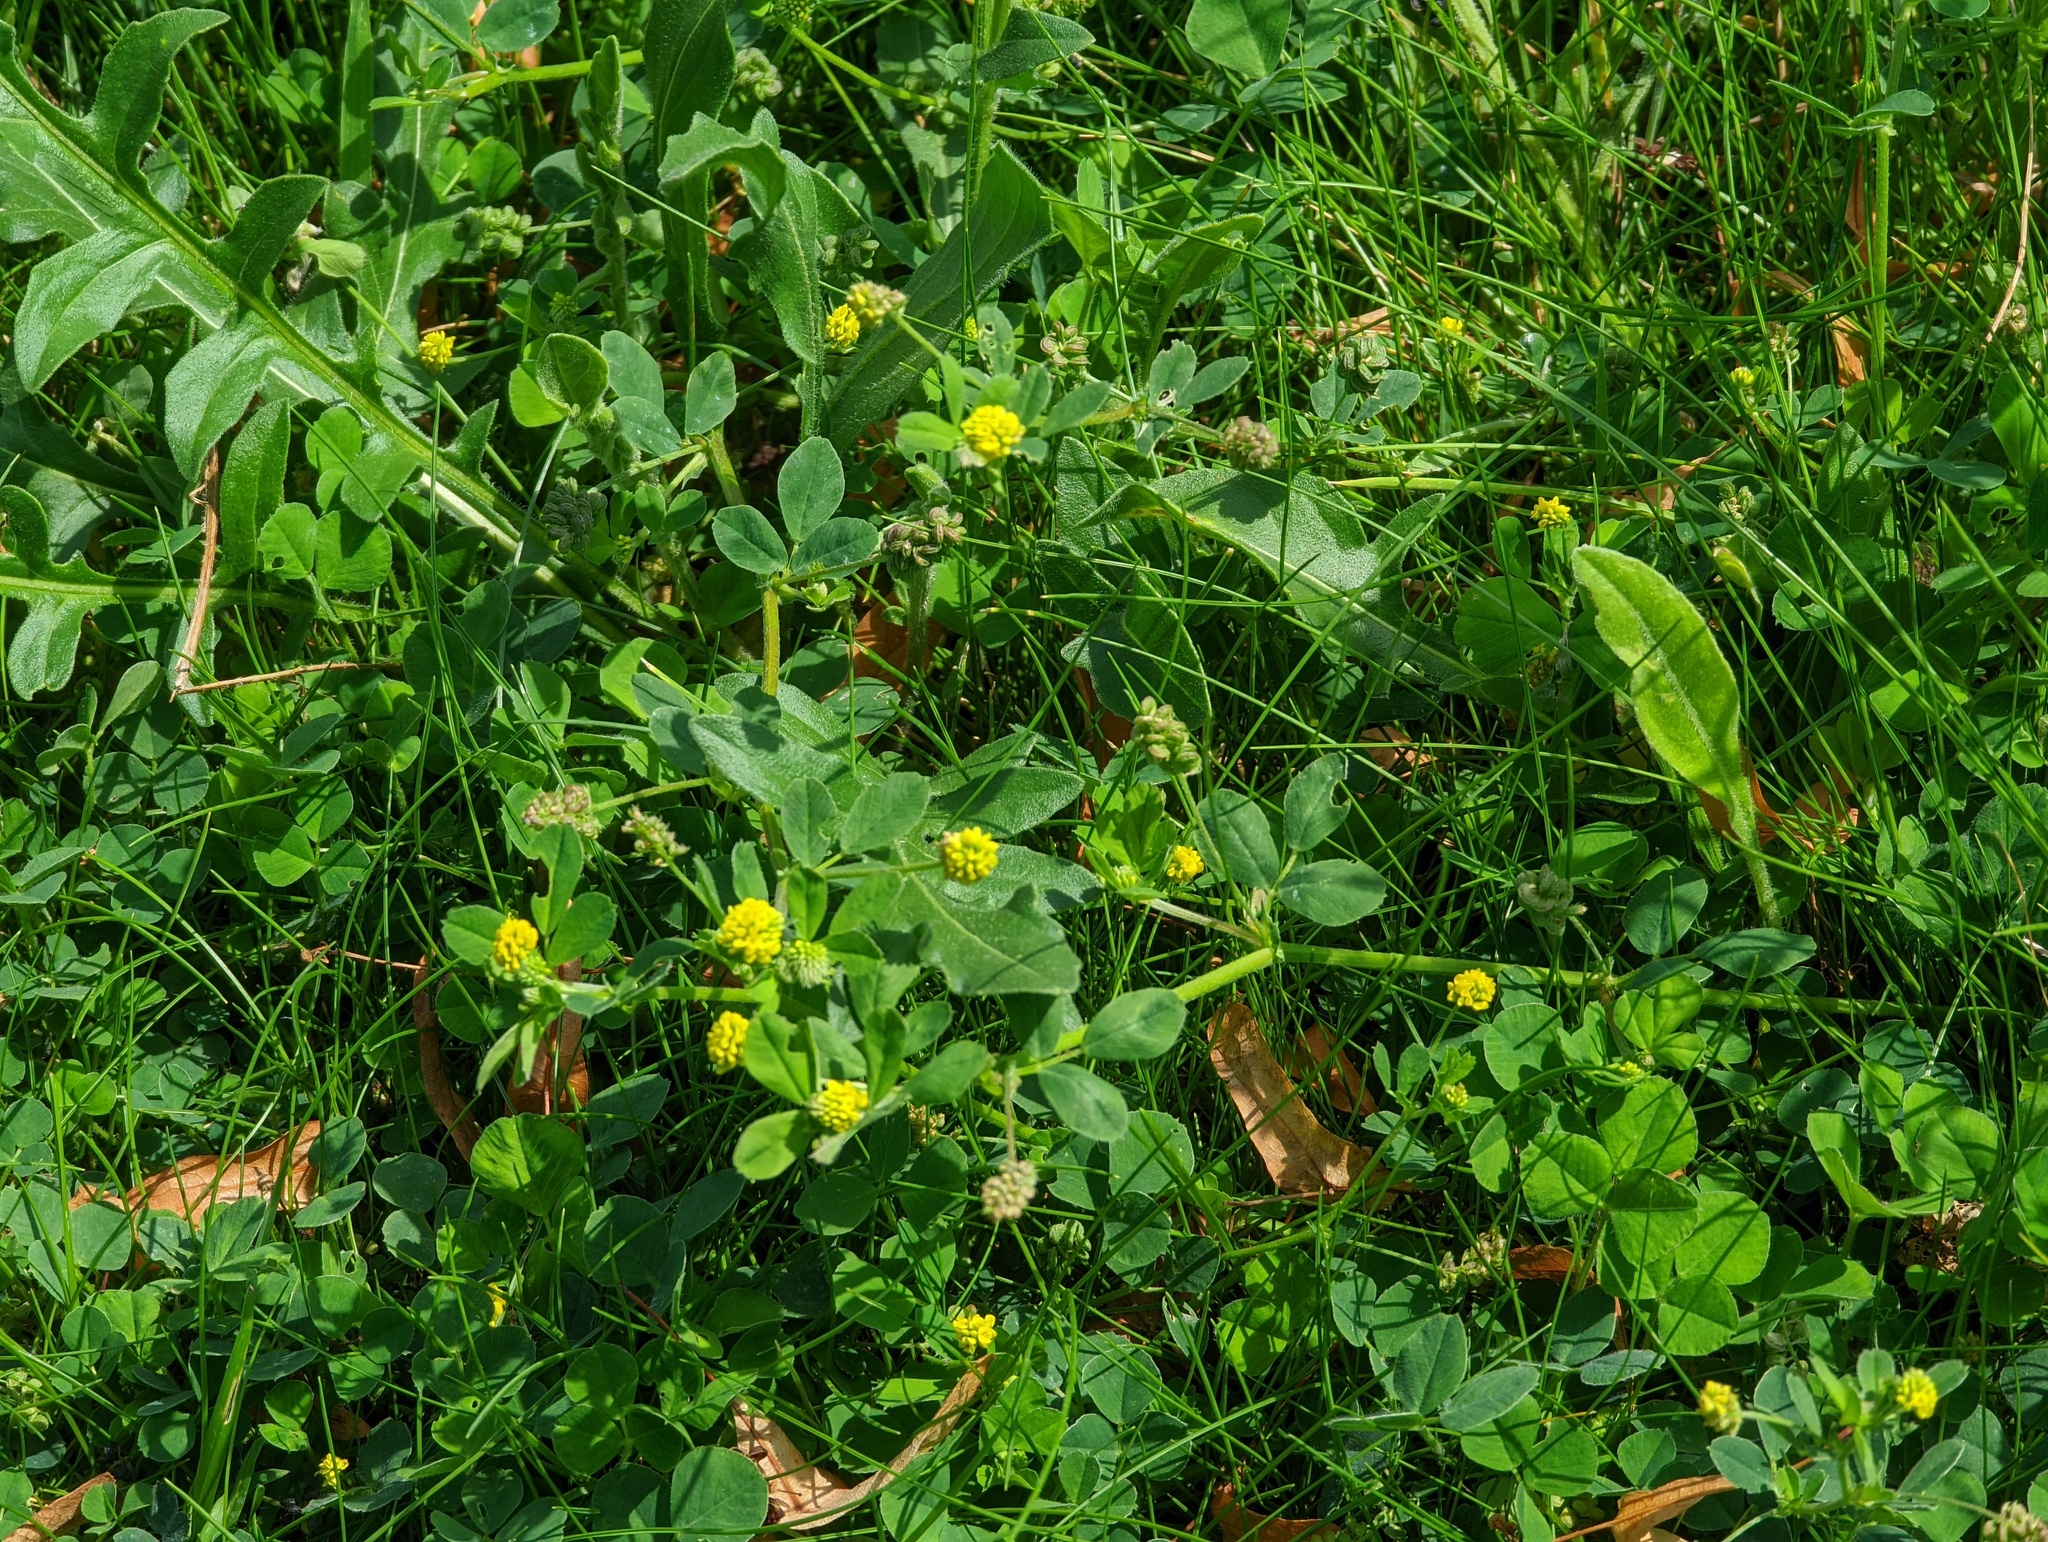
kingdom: Plantae
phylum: Tracheophyta
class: Magnoliopsida
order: Fabales
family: Fabaceae
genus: Medicago
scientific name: Medicago lupulina
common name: Black medick
